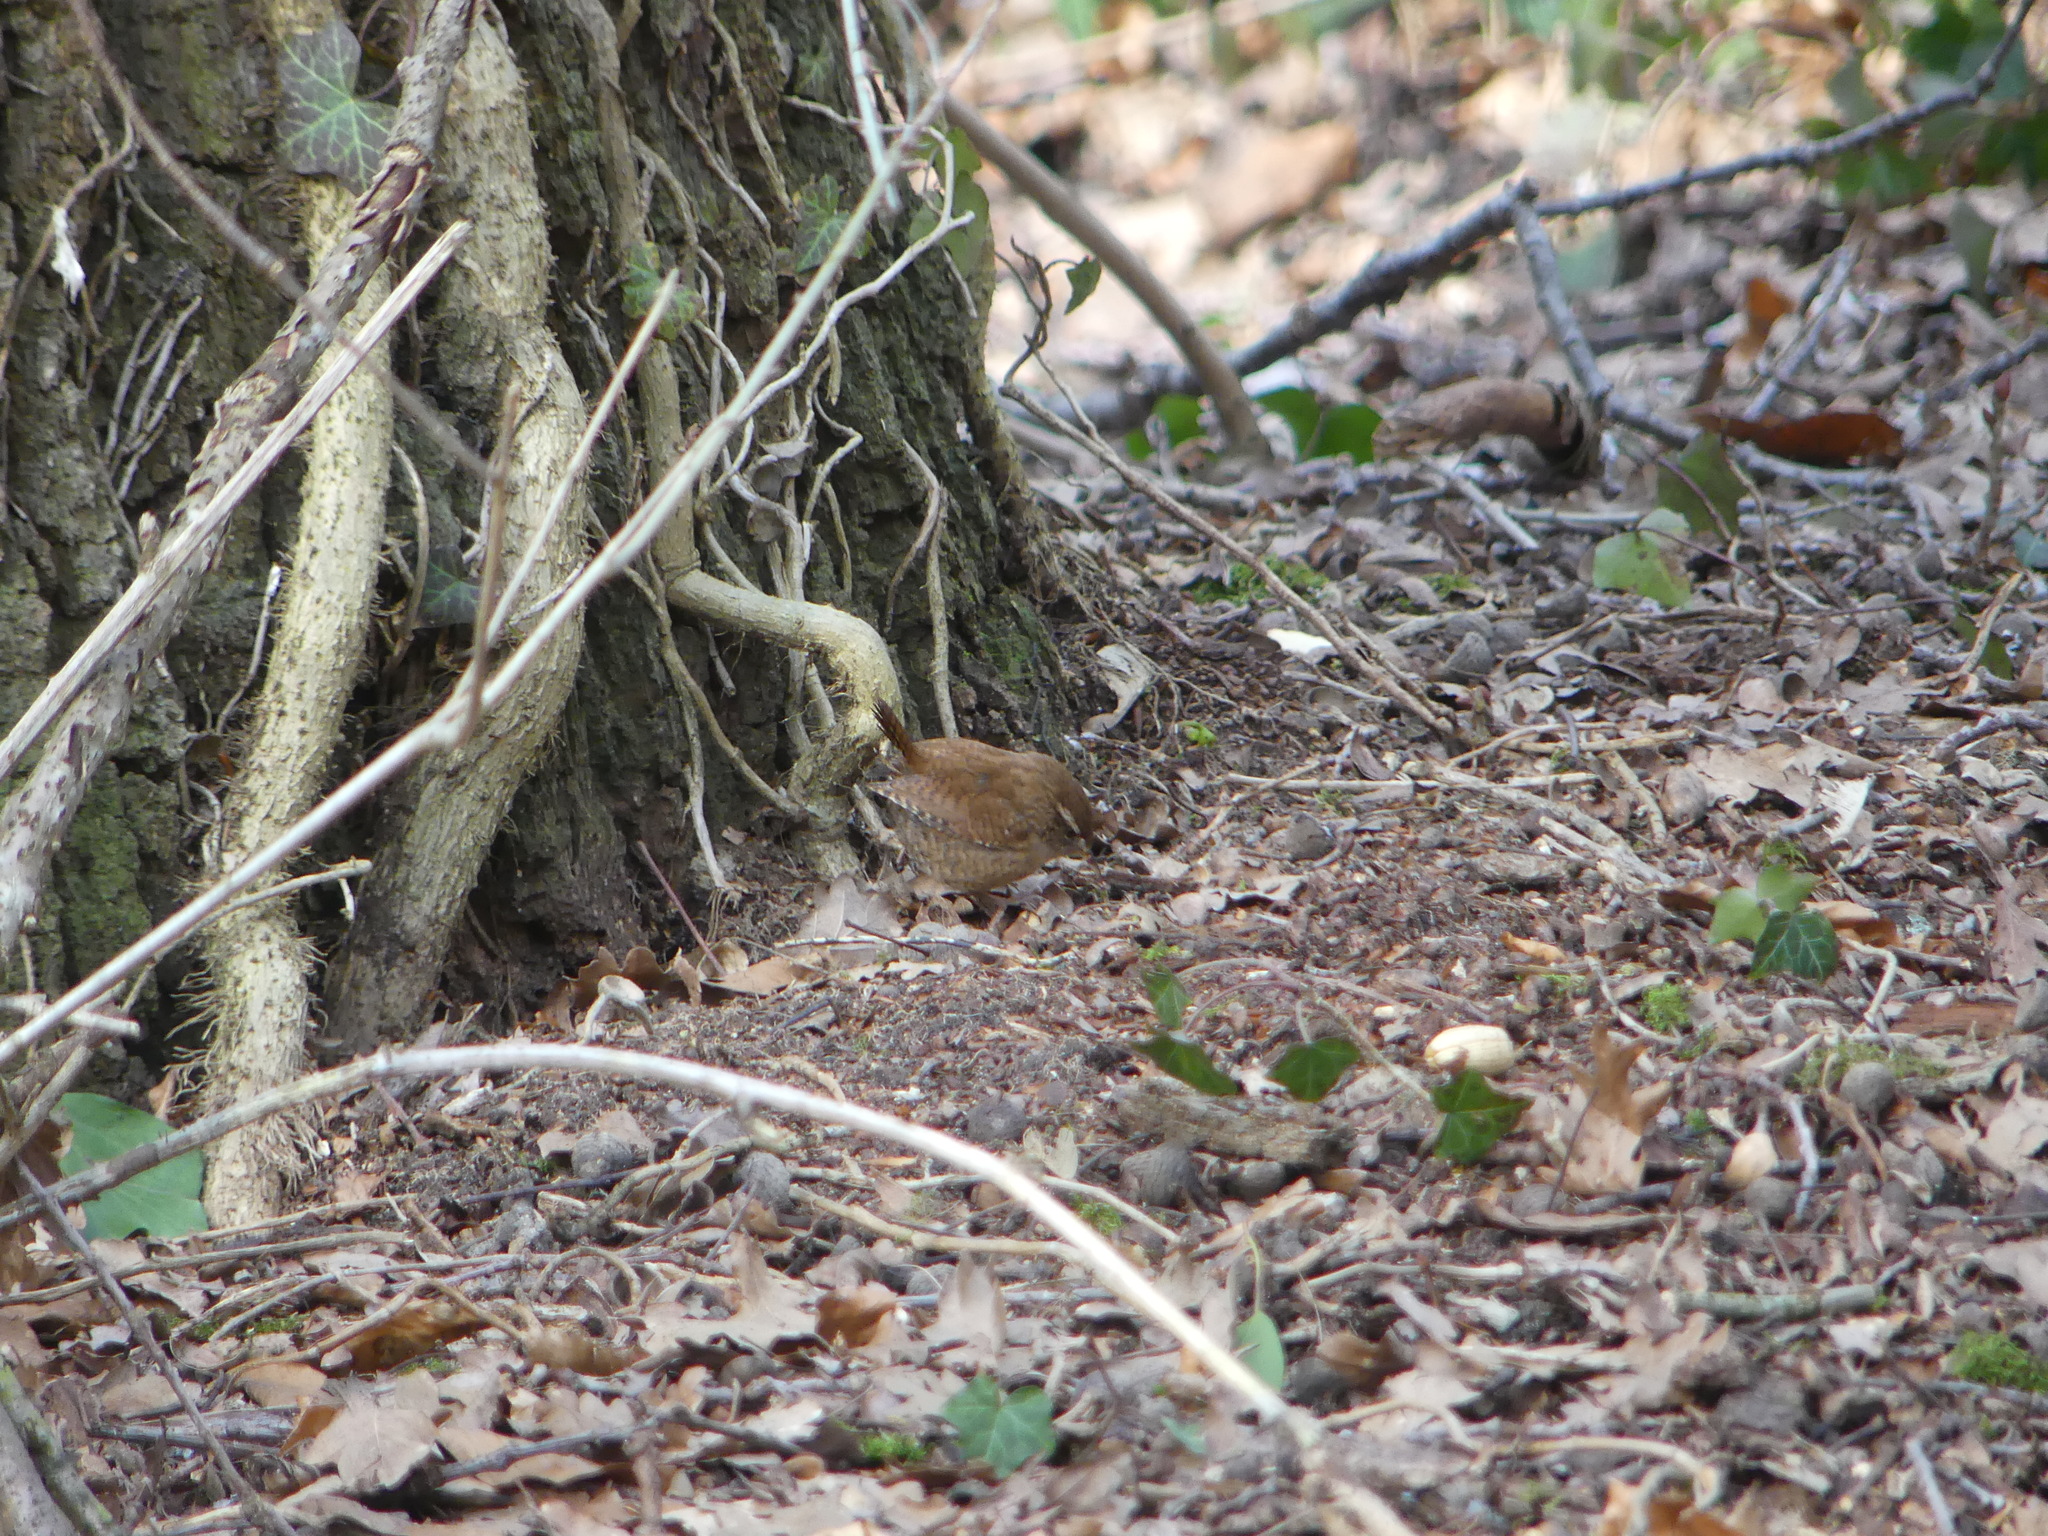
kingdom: Animalia
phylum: Chordata
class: Aves
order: Passeriformes
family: Troglodytidae
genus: Troglodytes
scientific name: Troglodytes troglodytes
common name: Eurasian wren
